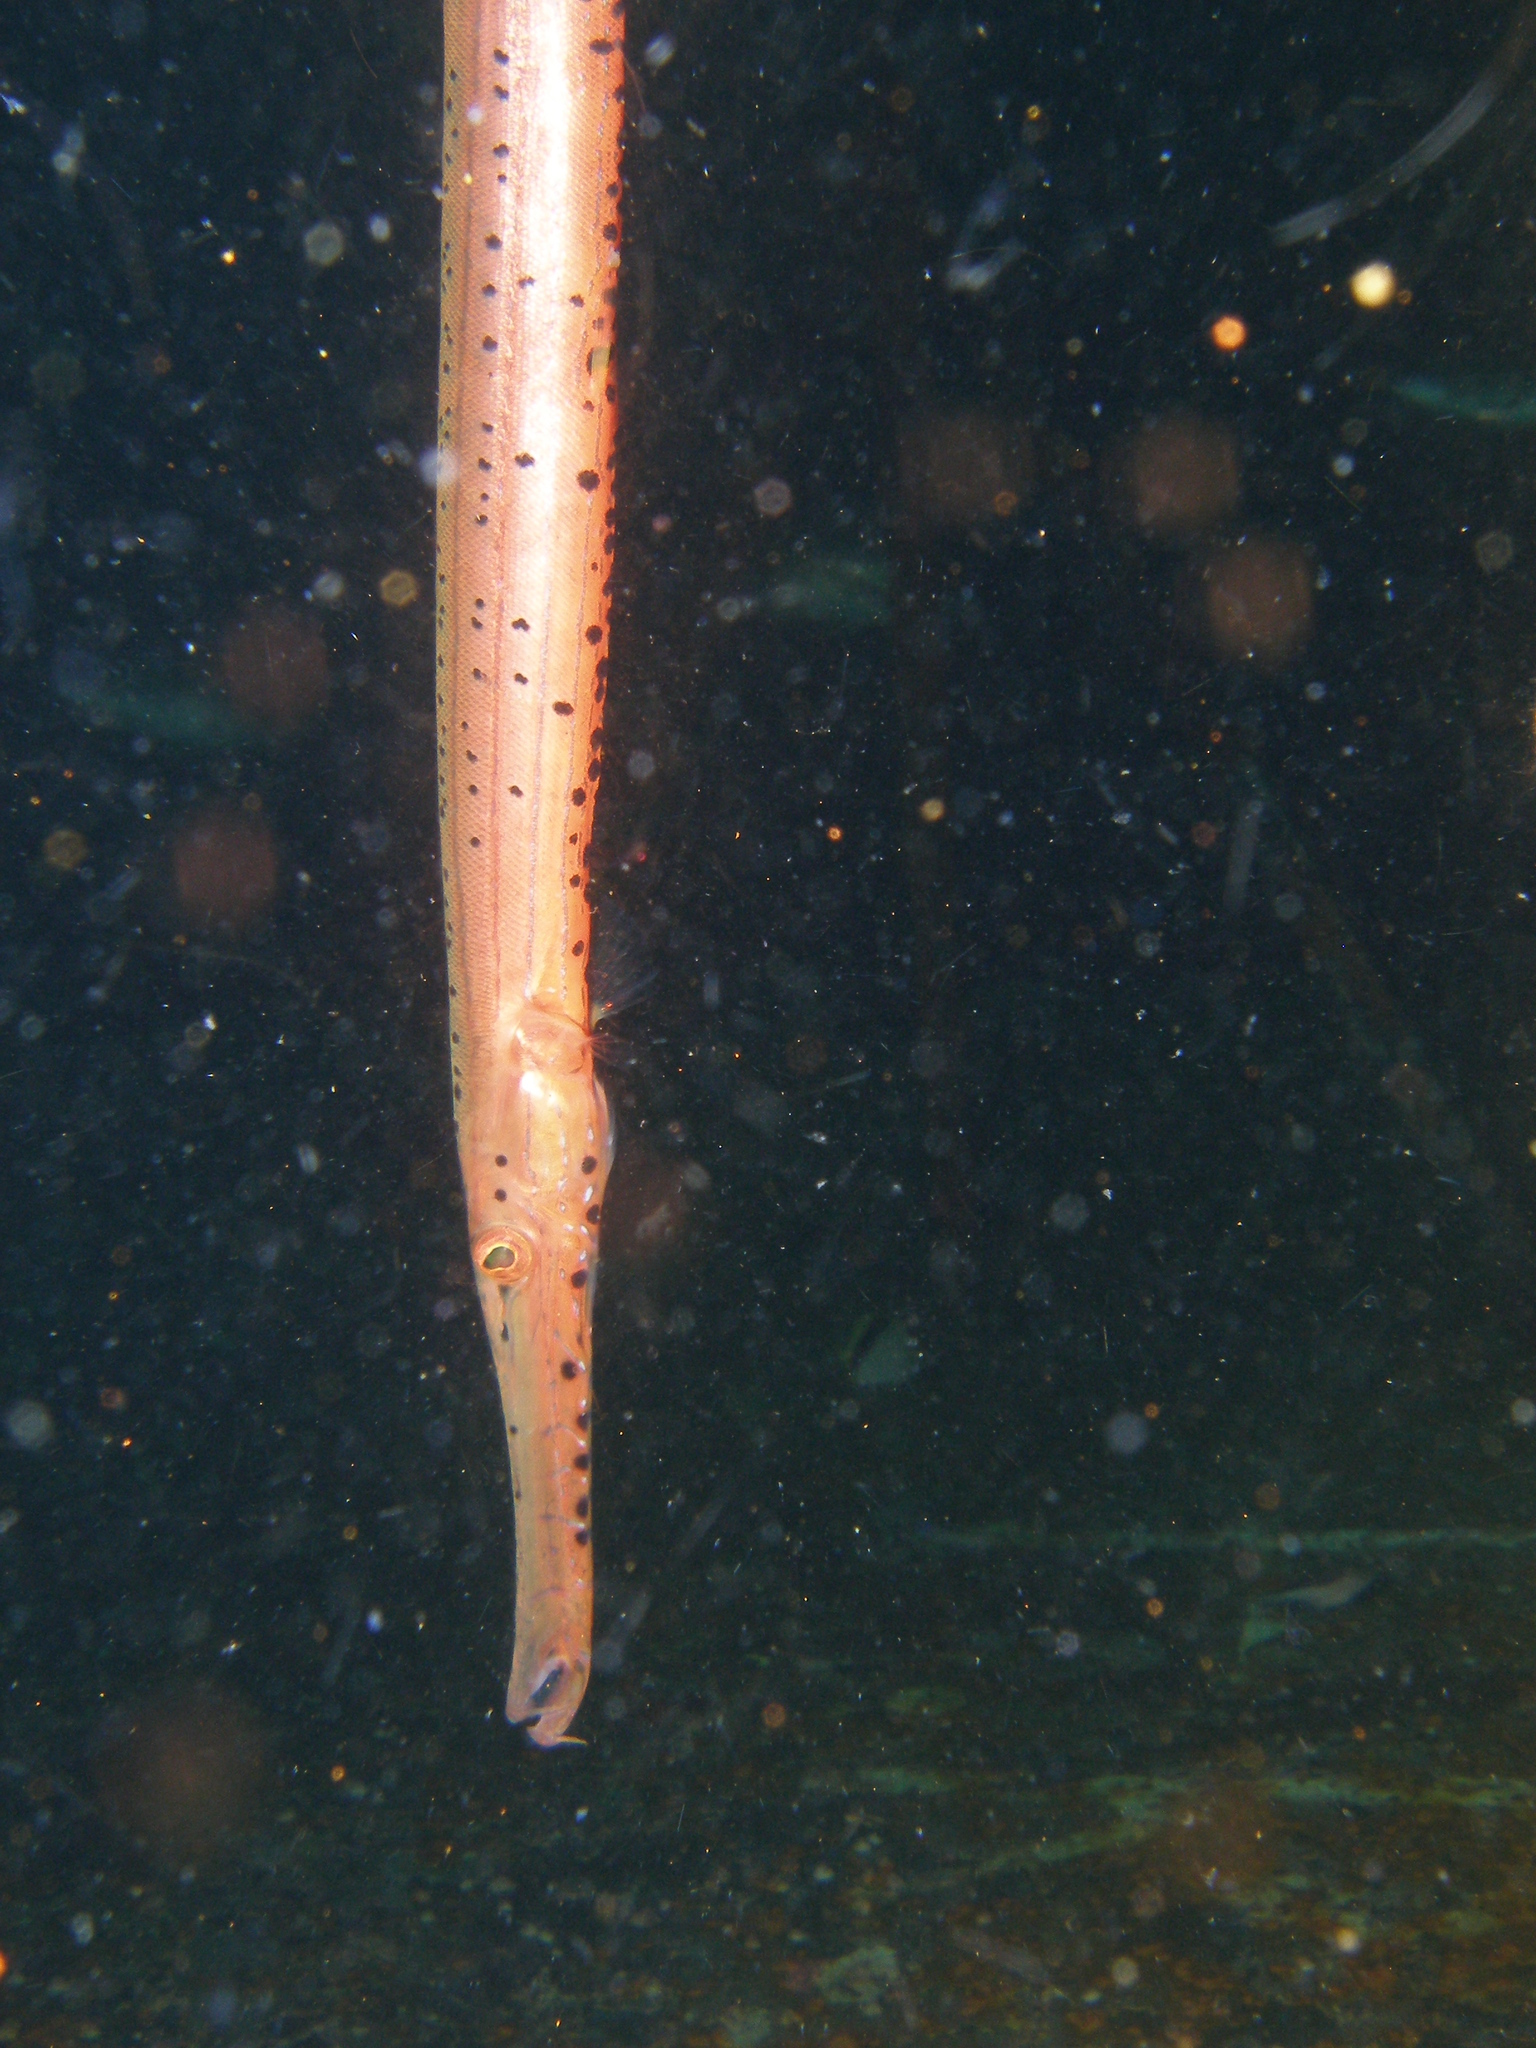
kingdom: Animalia
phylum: Chordata
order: Syngnathiformes
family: Aulostomidae
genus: Aulostomus
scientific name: Aulostomus maculatus
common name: West atlantic trumpetfish
